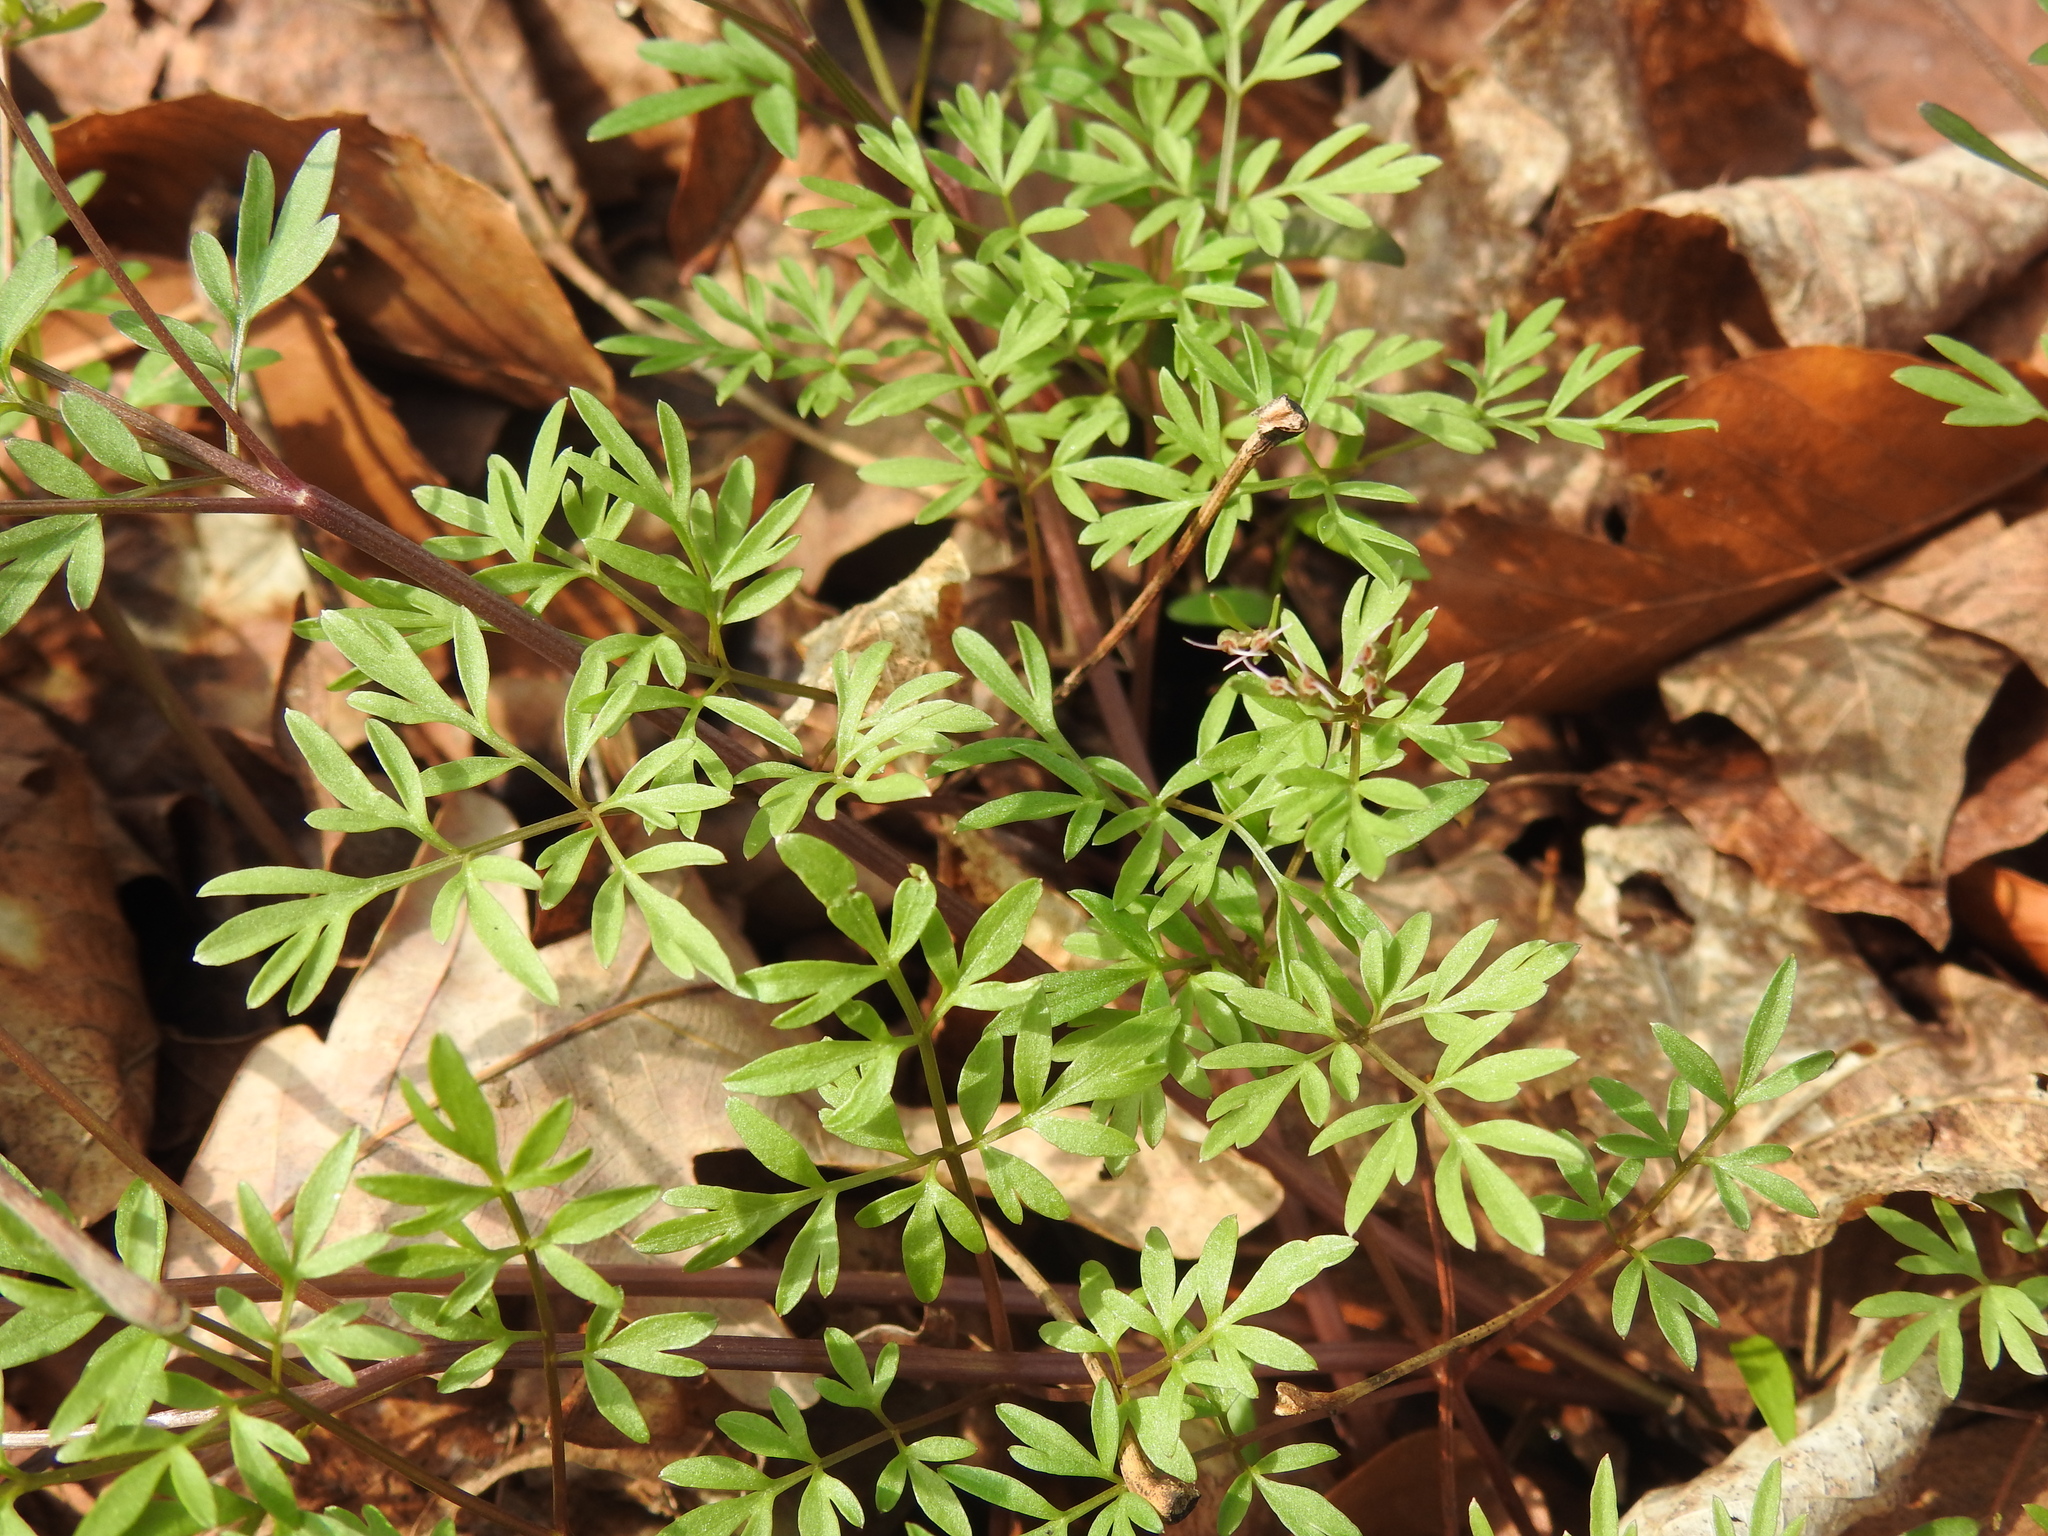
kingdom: Plantae
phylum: Tracheophyta
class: Magnoliopsida
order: Apiales
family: Apiaceae
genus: Erigenia
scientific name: Erigenia bulbosa
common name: Pepper-and-salt
